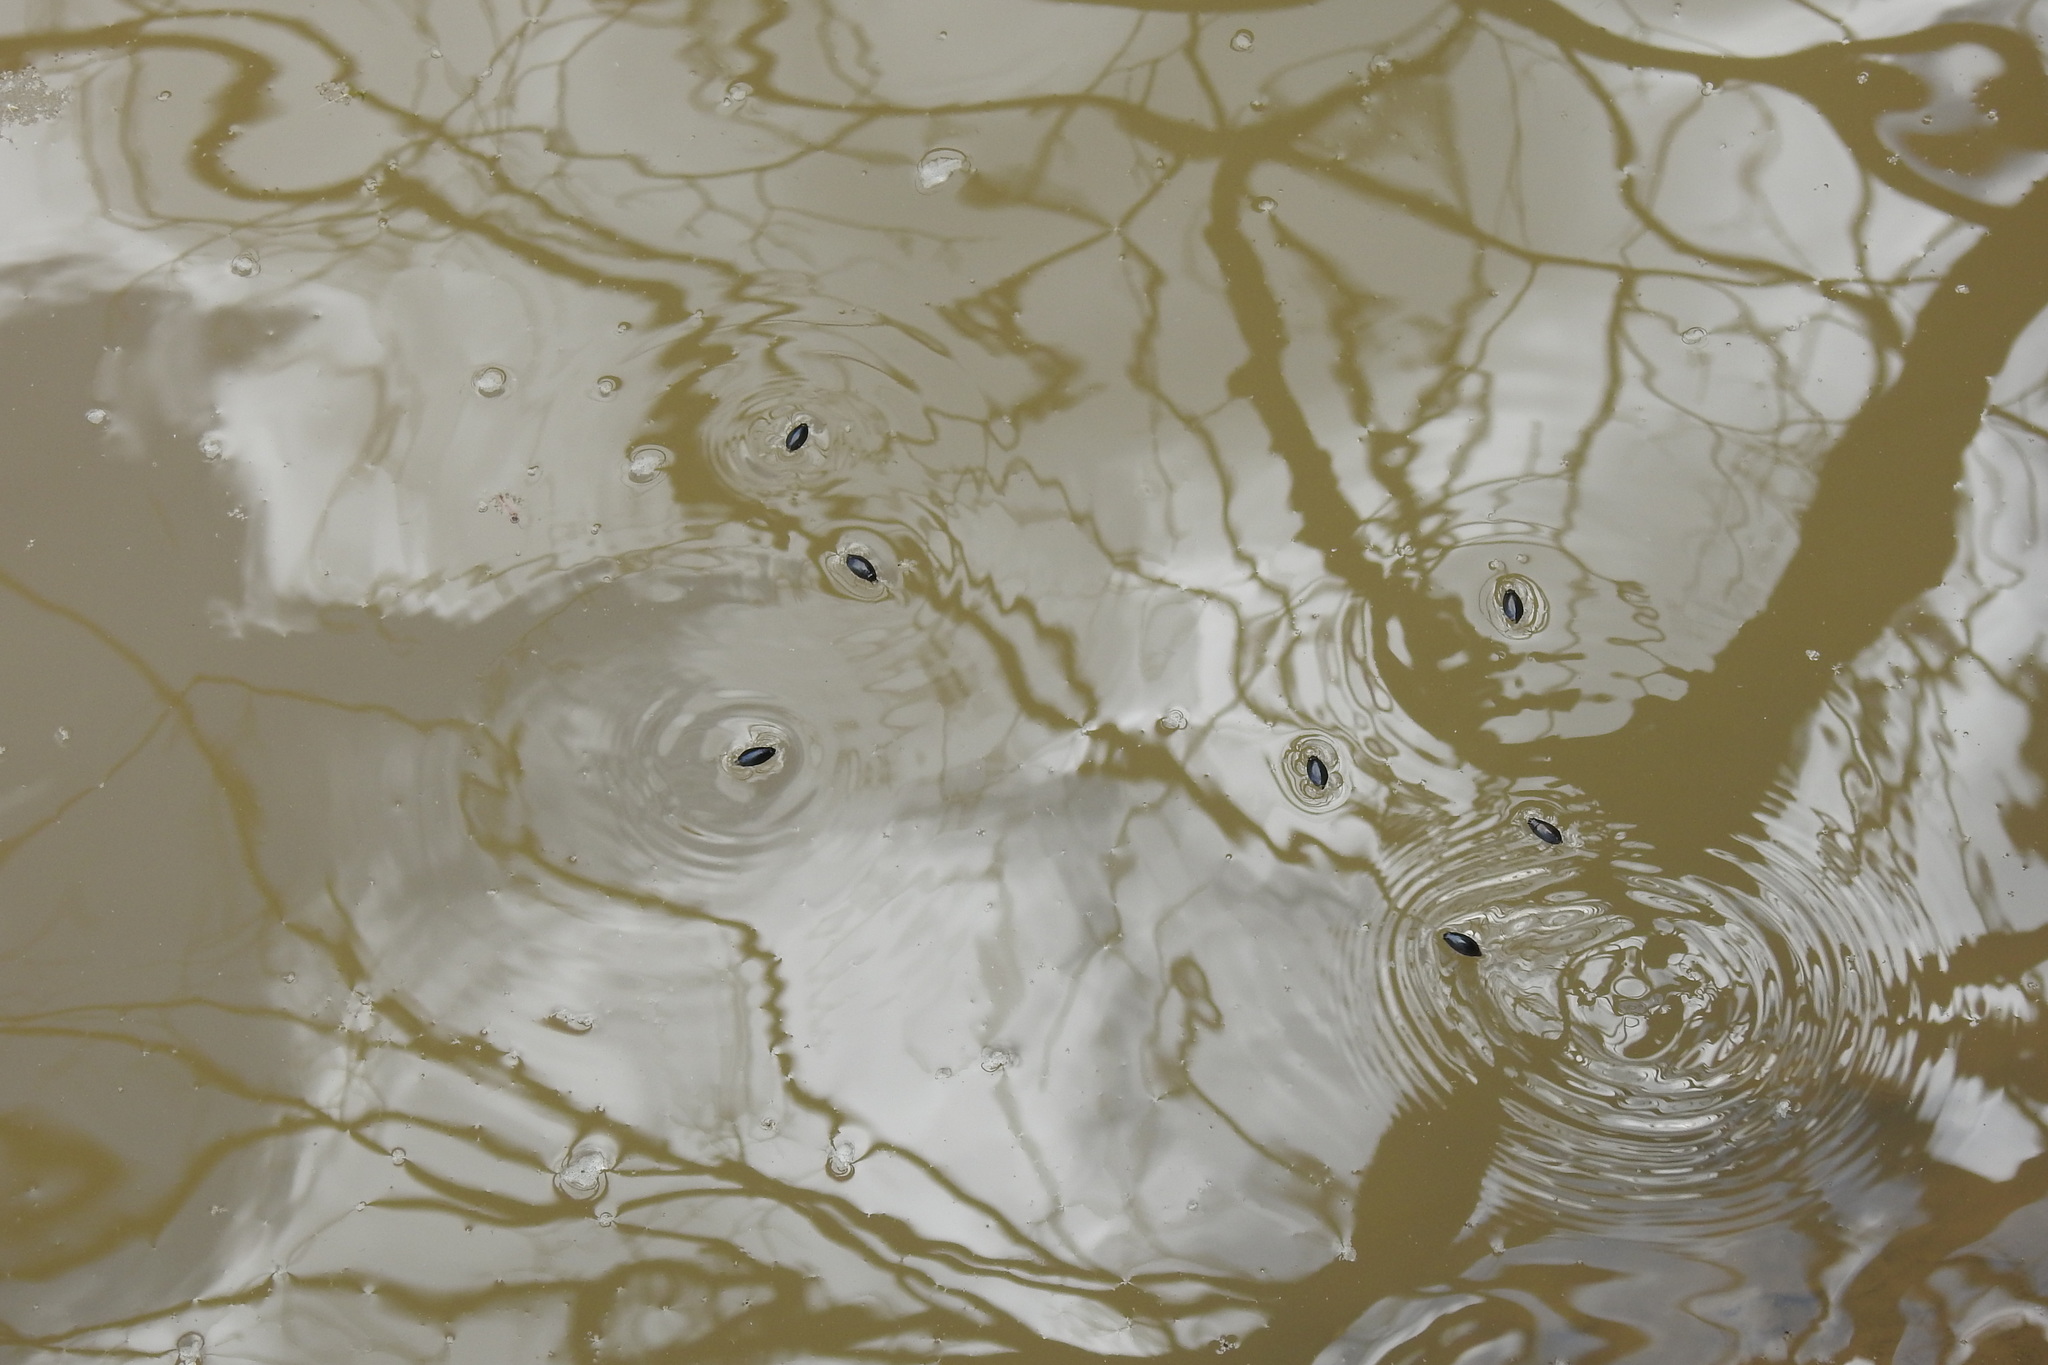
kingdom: Animalia
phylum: Arthropoda
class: Insecta
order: Coleoptera
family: Gyrinidae
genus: Dineutus
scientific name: Dineutus
